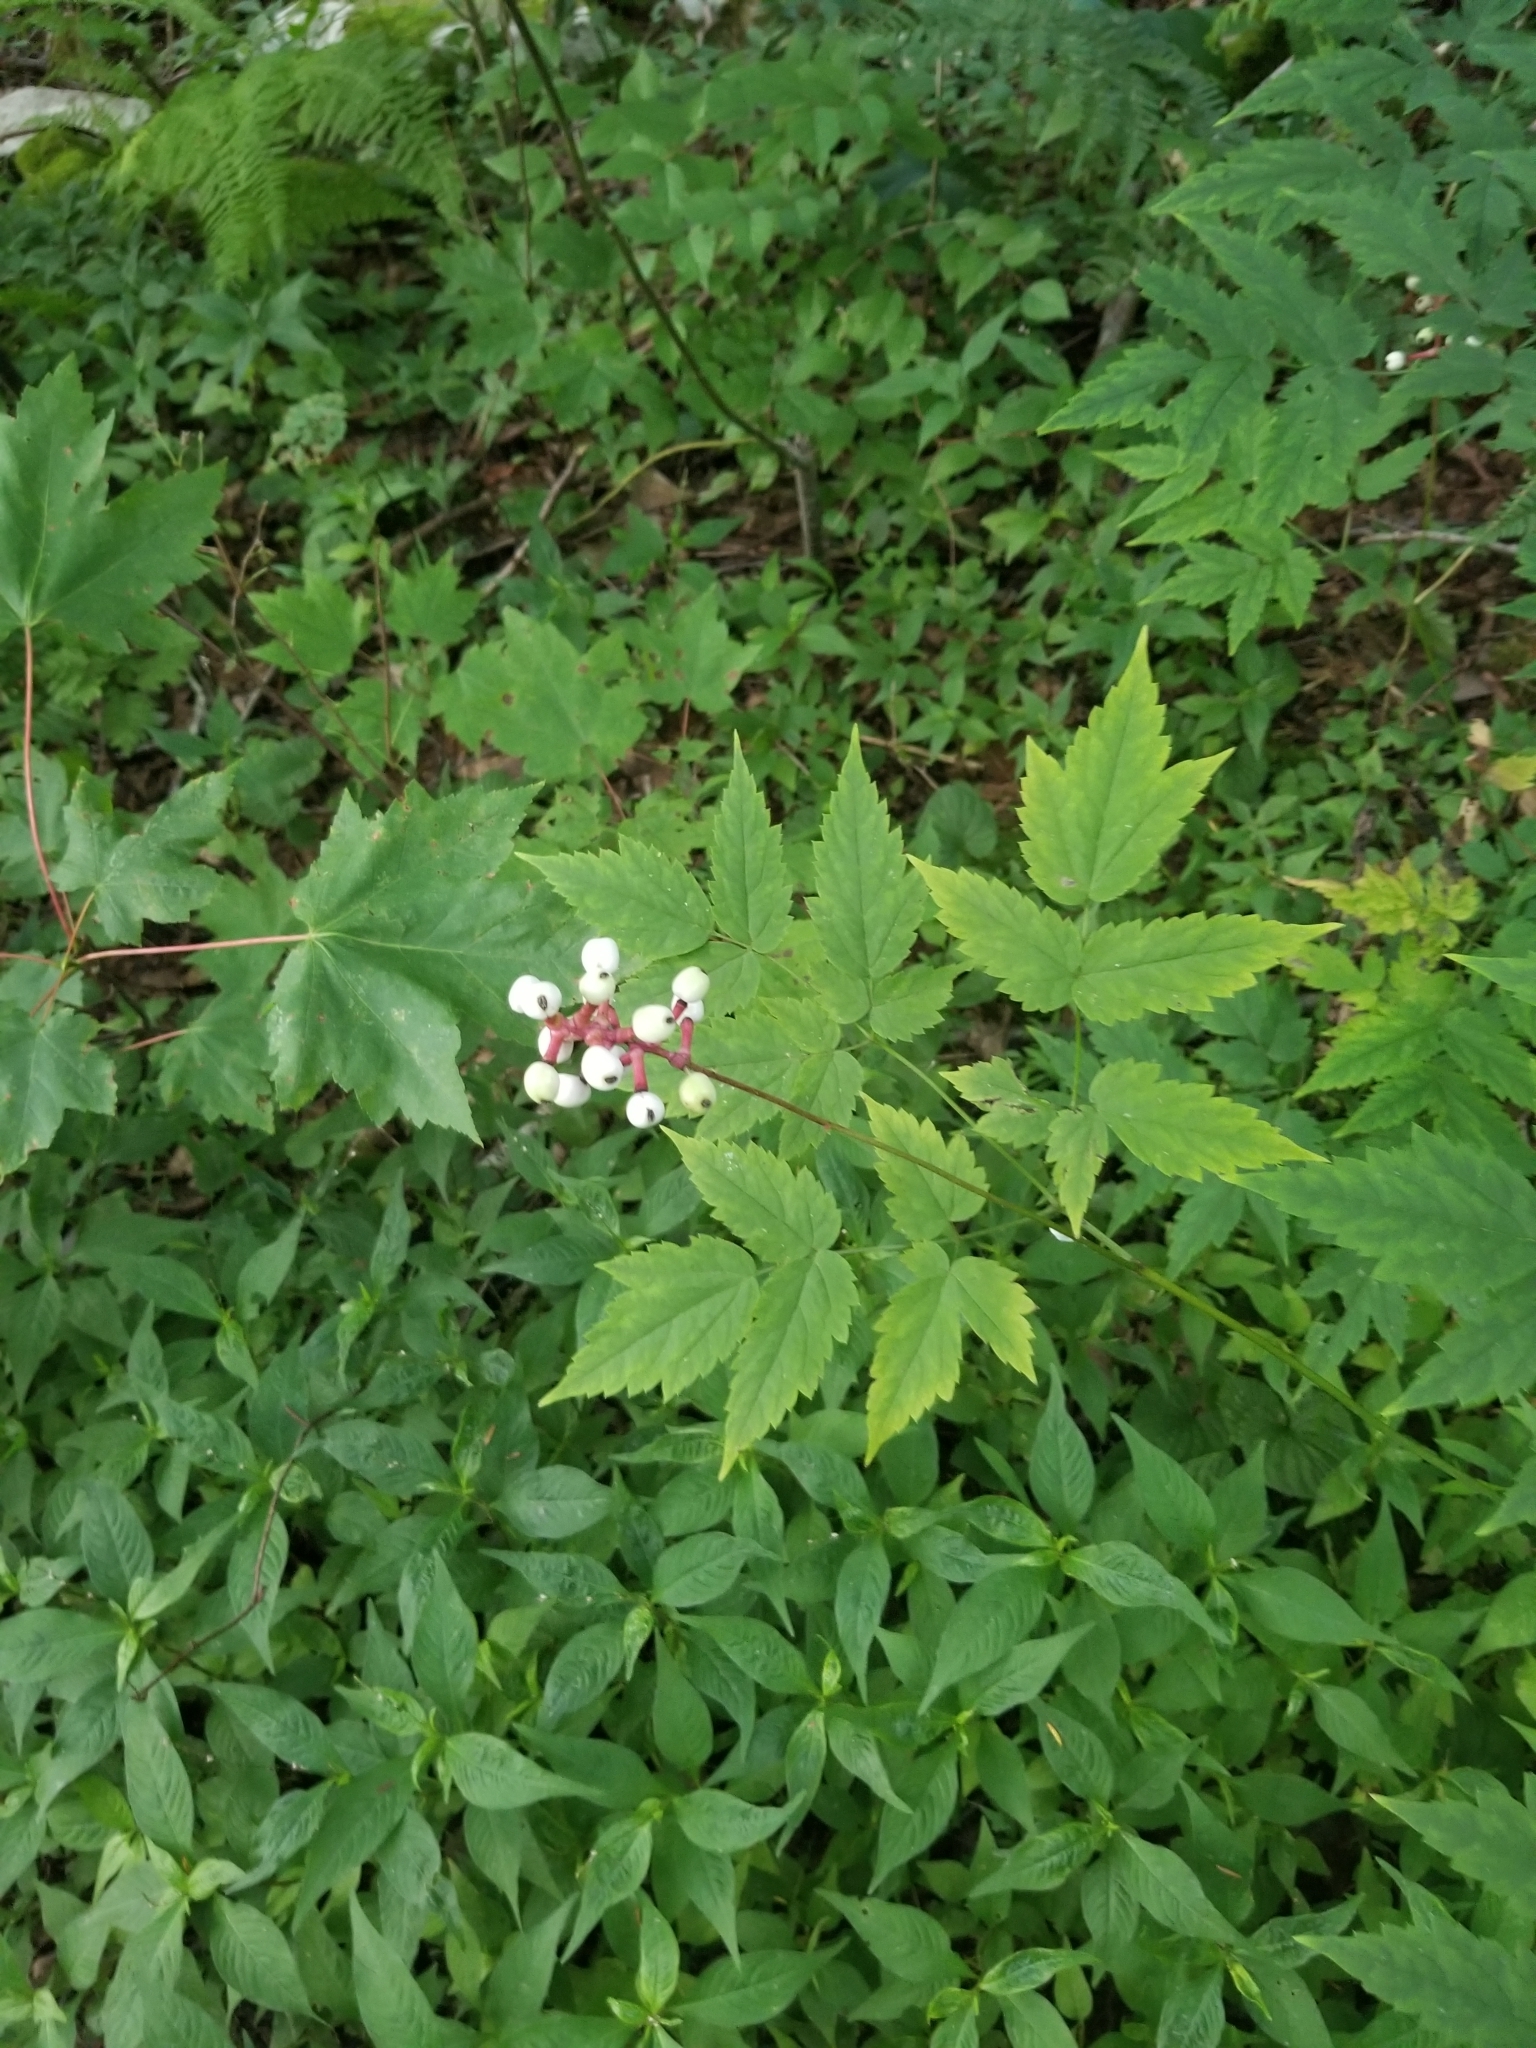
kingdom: Plantae
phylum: Tracheophyta
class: Magnoliopsida
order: Ranunculales
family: Ranunculaceae
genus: Actaea
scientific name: Actaea pachypoda
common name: Doll's-eyes
